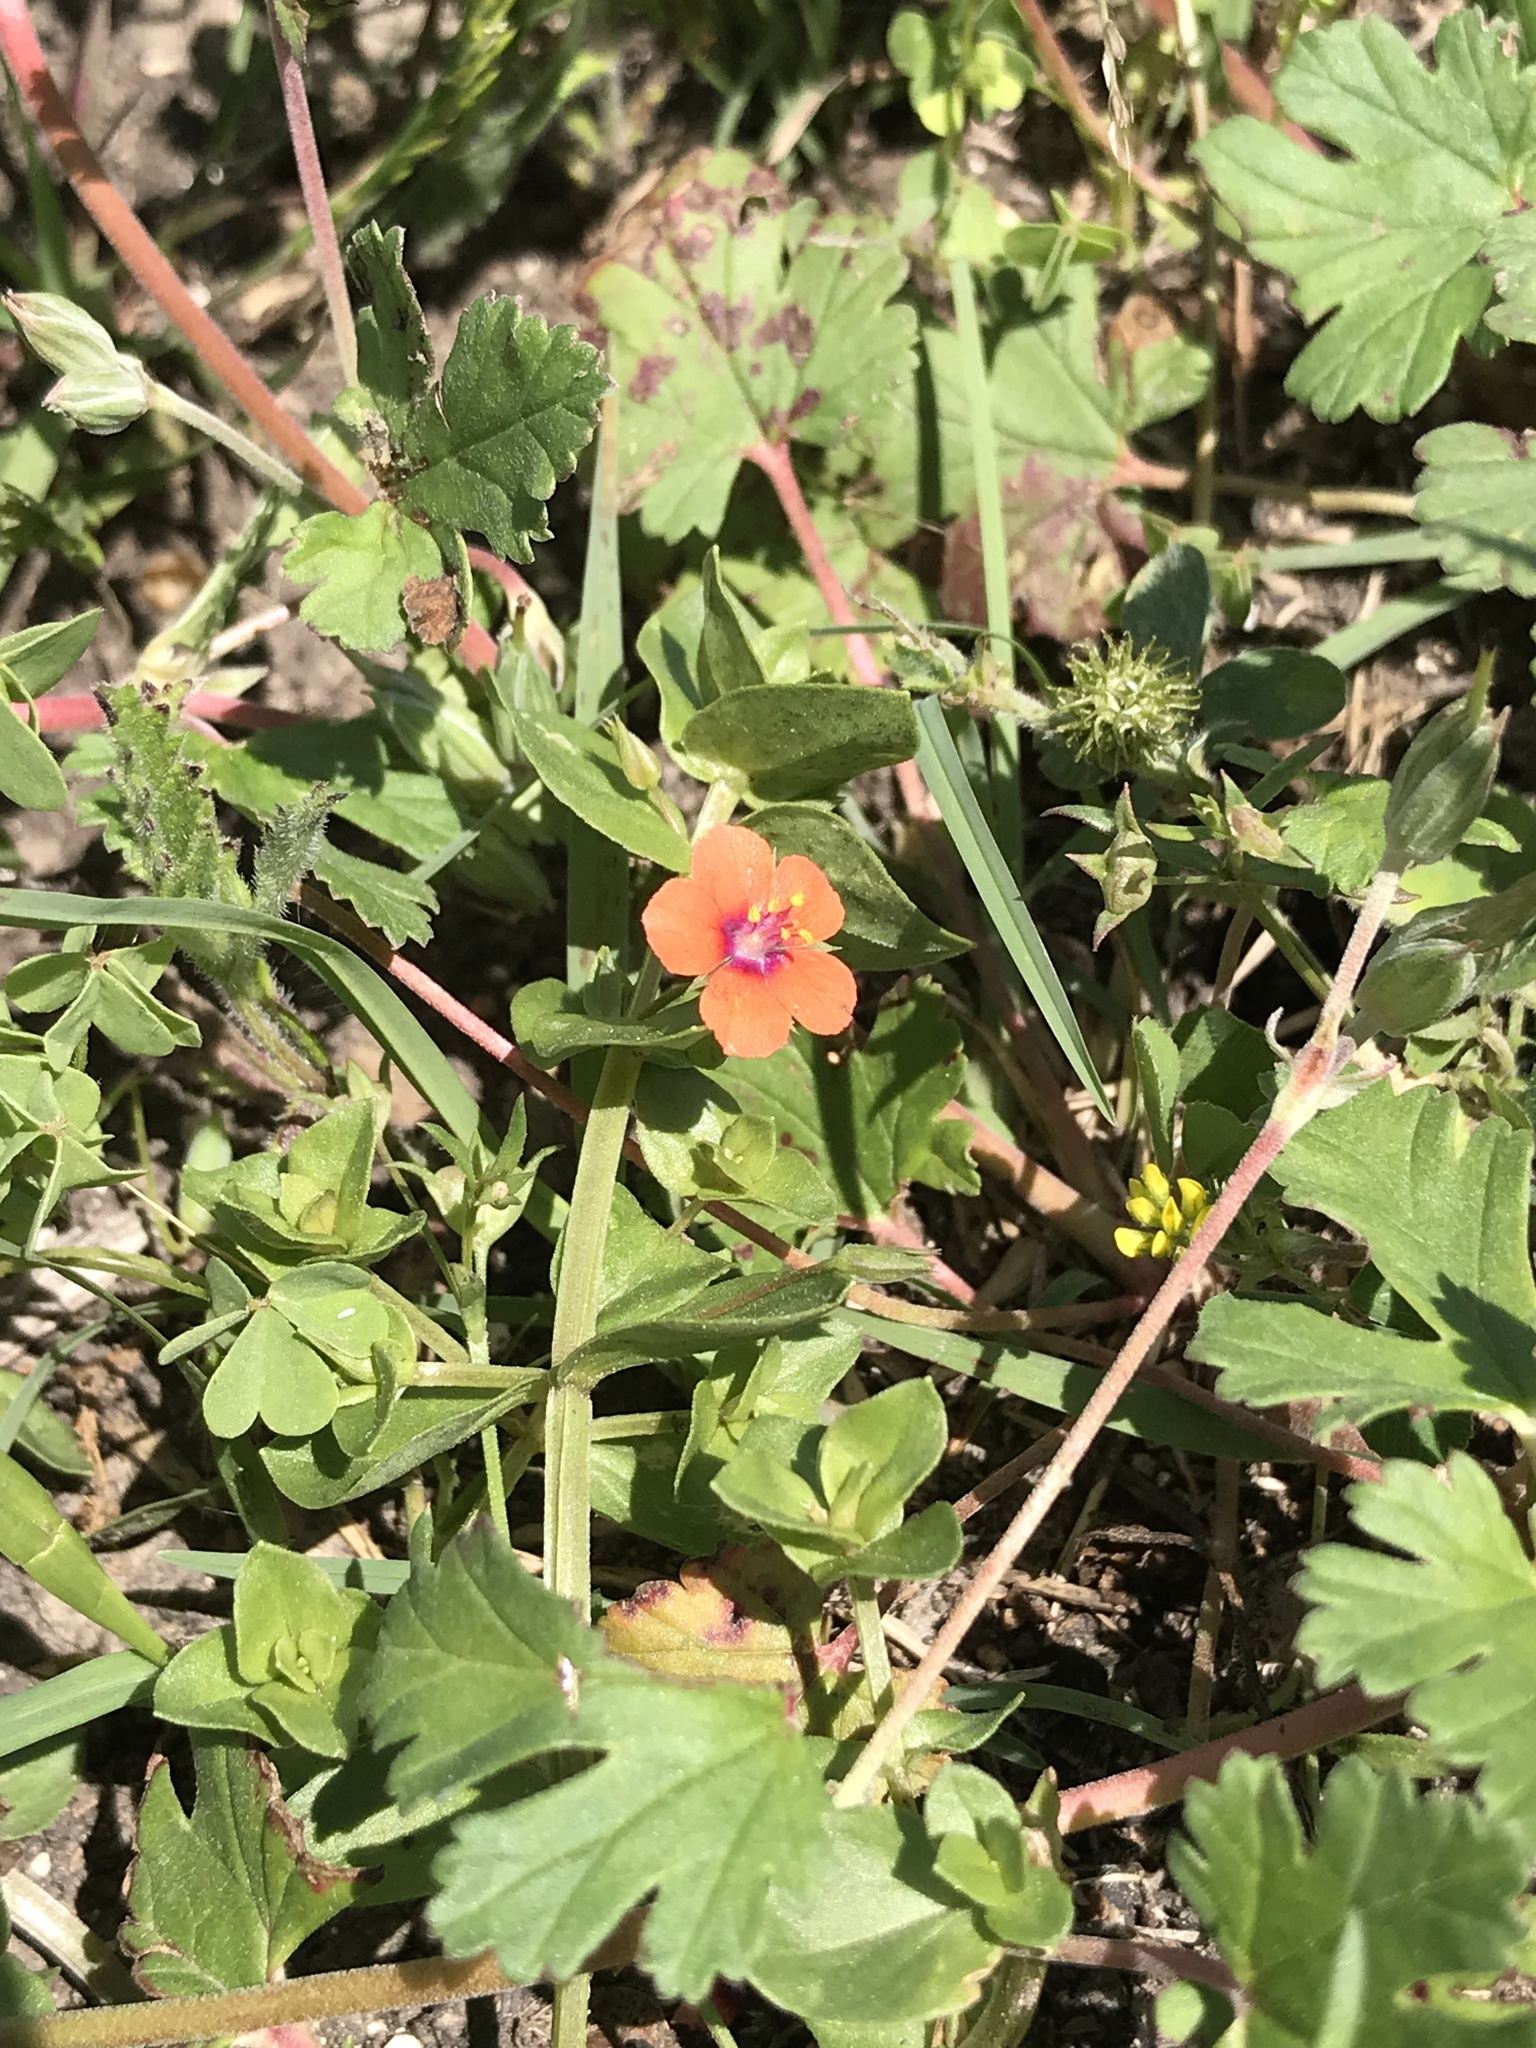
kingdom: Plantae
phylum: Tracheophyta
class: Magnoliopsida
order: Ericales
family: Primulaceae
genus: Lysimachia
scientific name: Lysimachia arvensis
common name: Scarlet pimpernel
